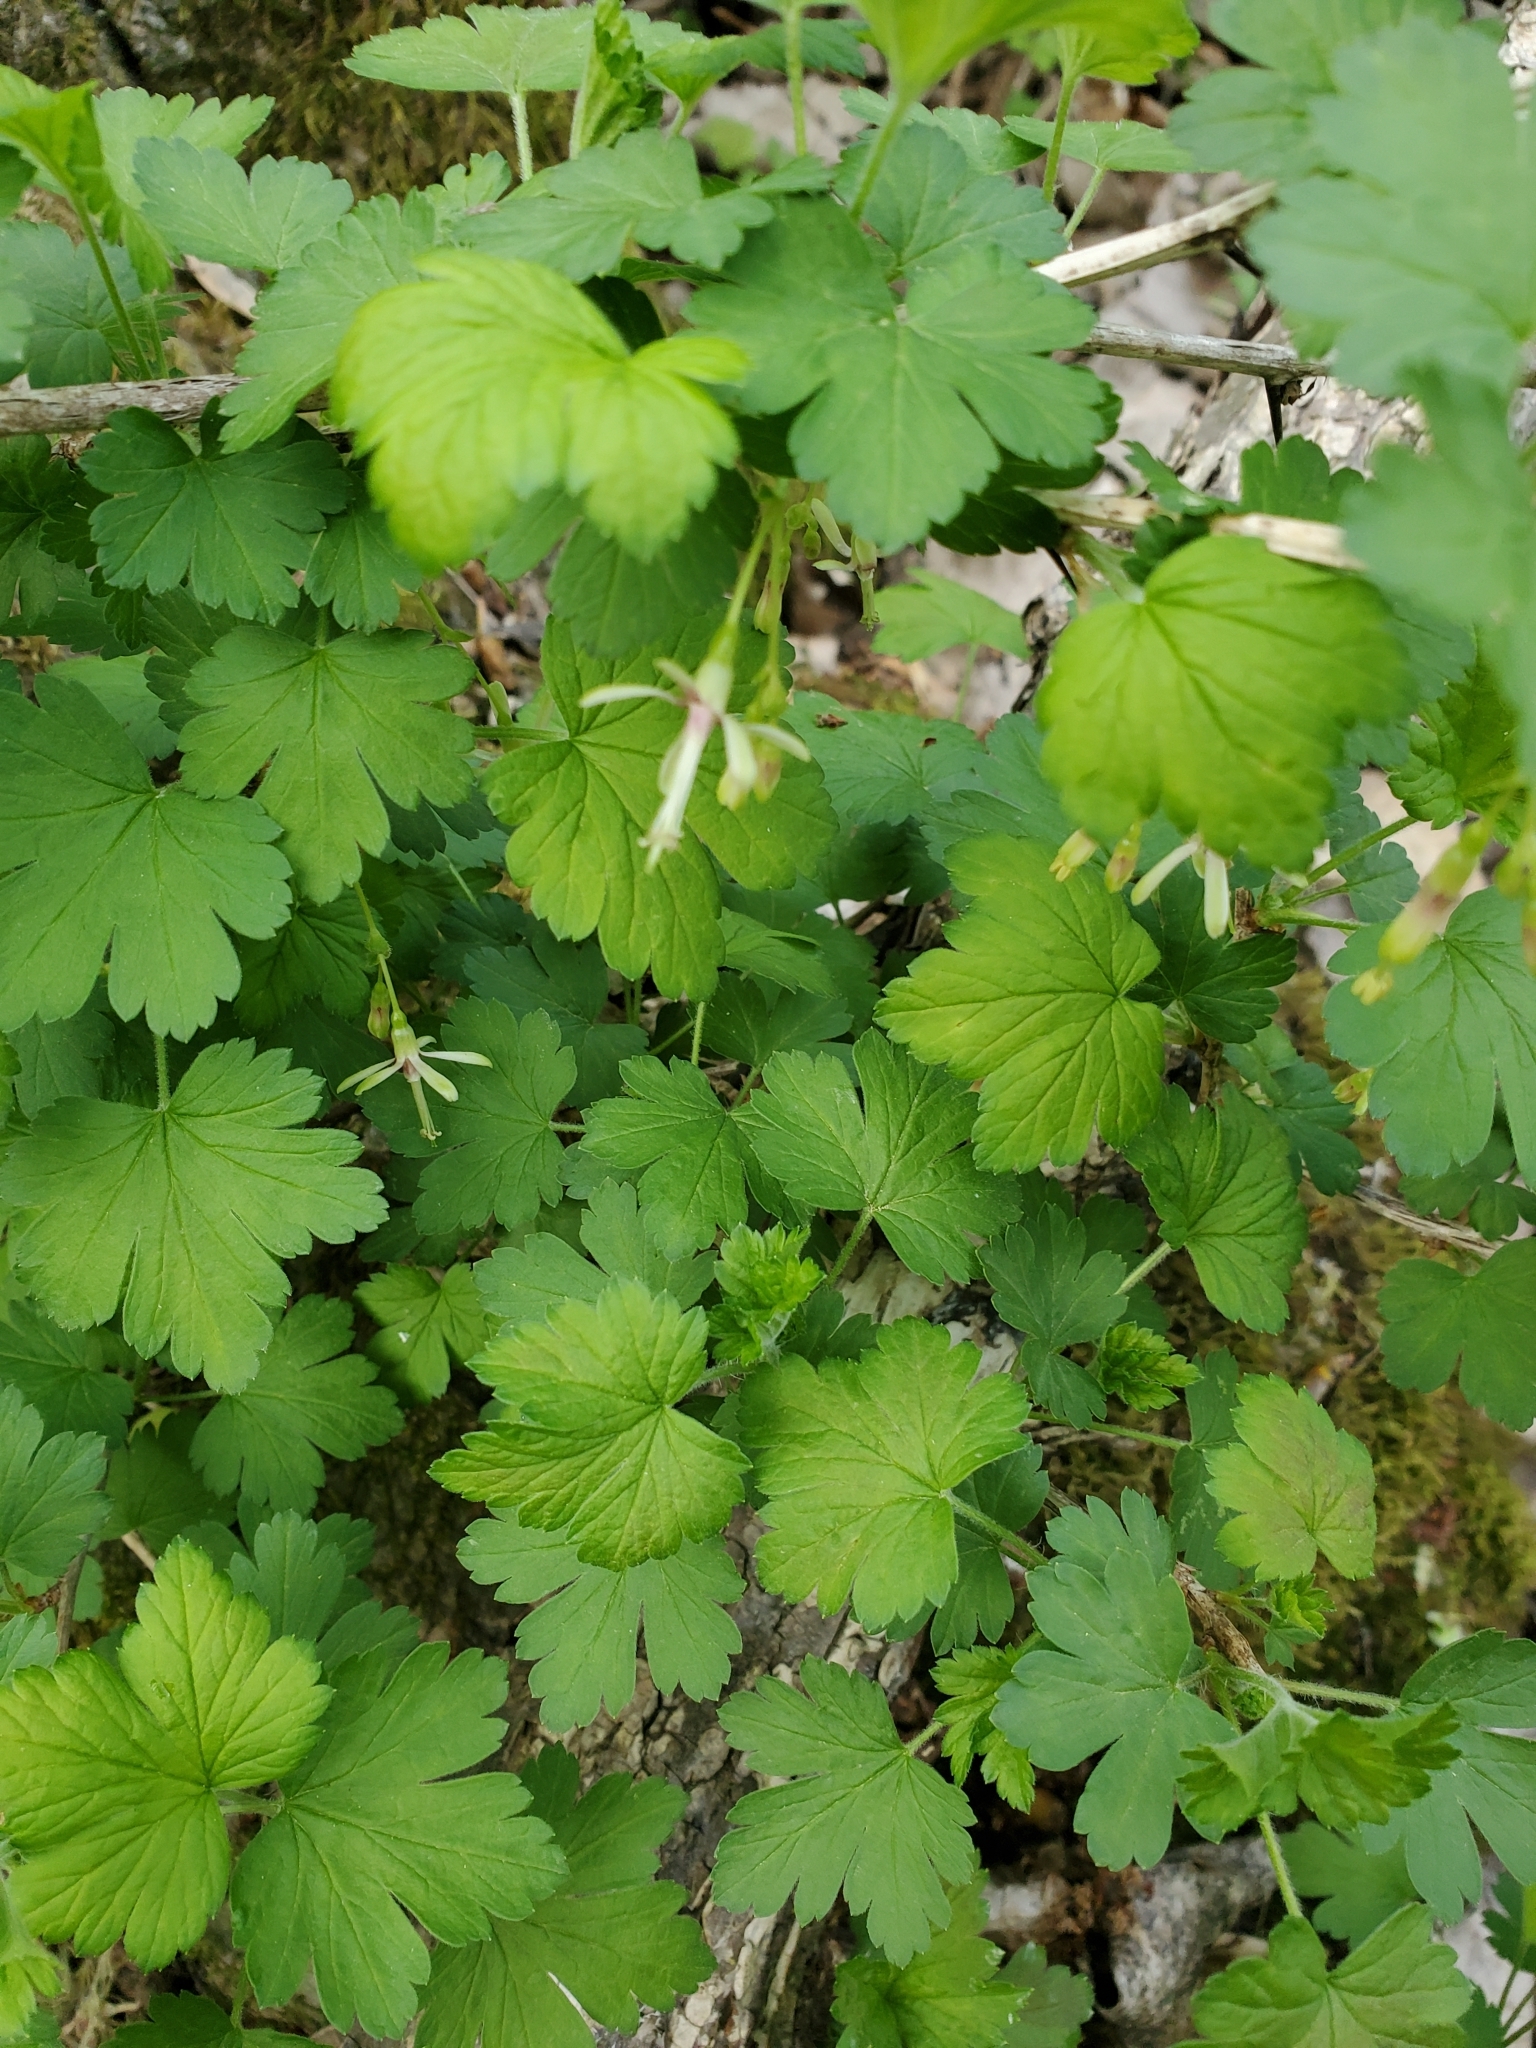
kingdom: Plantae
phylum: Tracheophyta
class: Magnoliopsida
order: Saxifragales
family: Grossulariaceae
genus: Ribes
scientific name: Ribes missouriense
